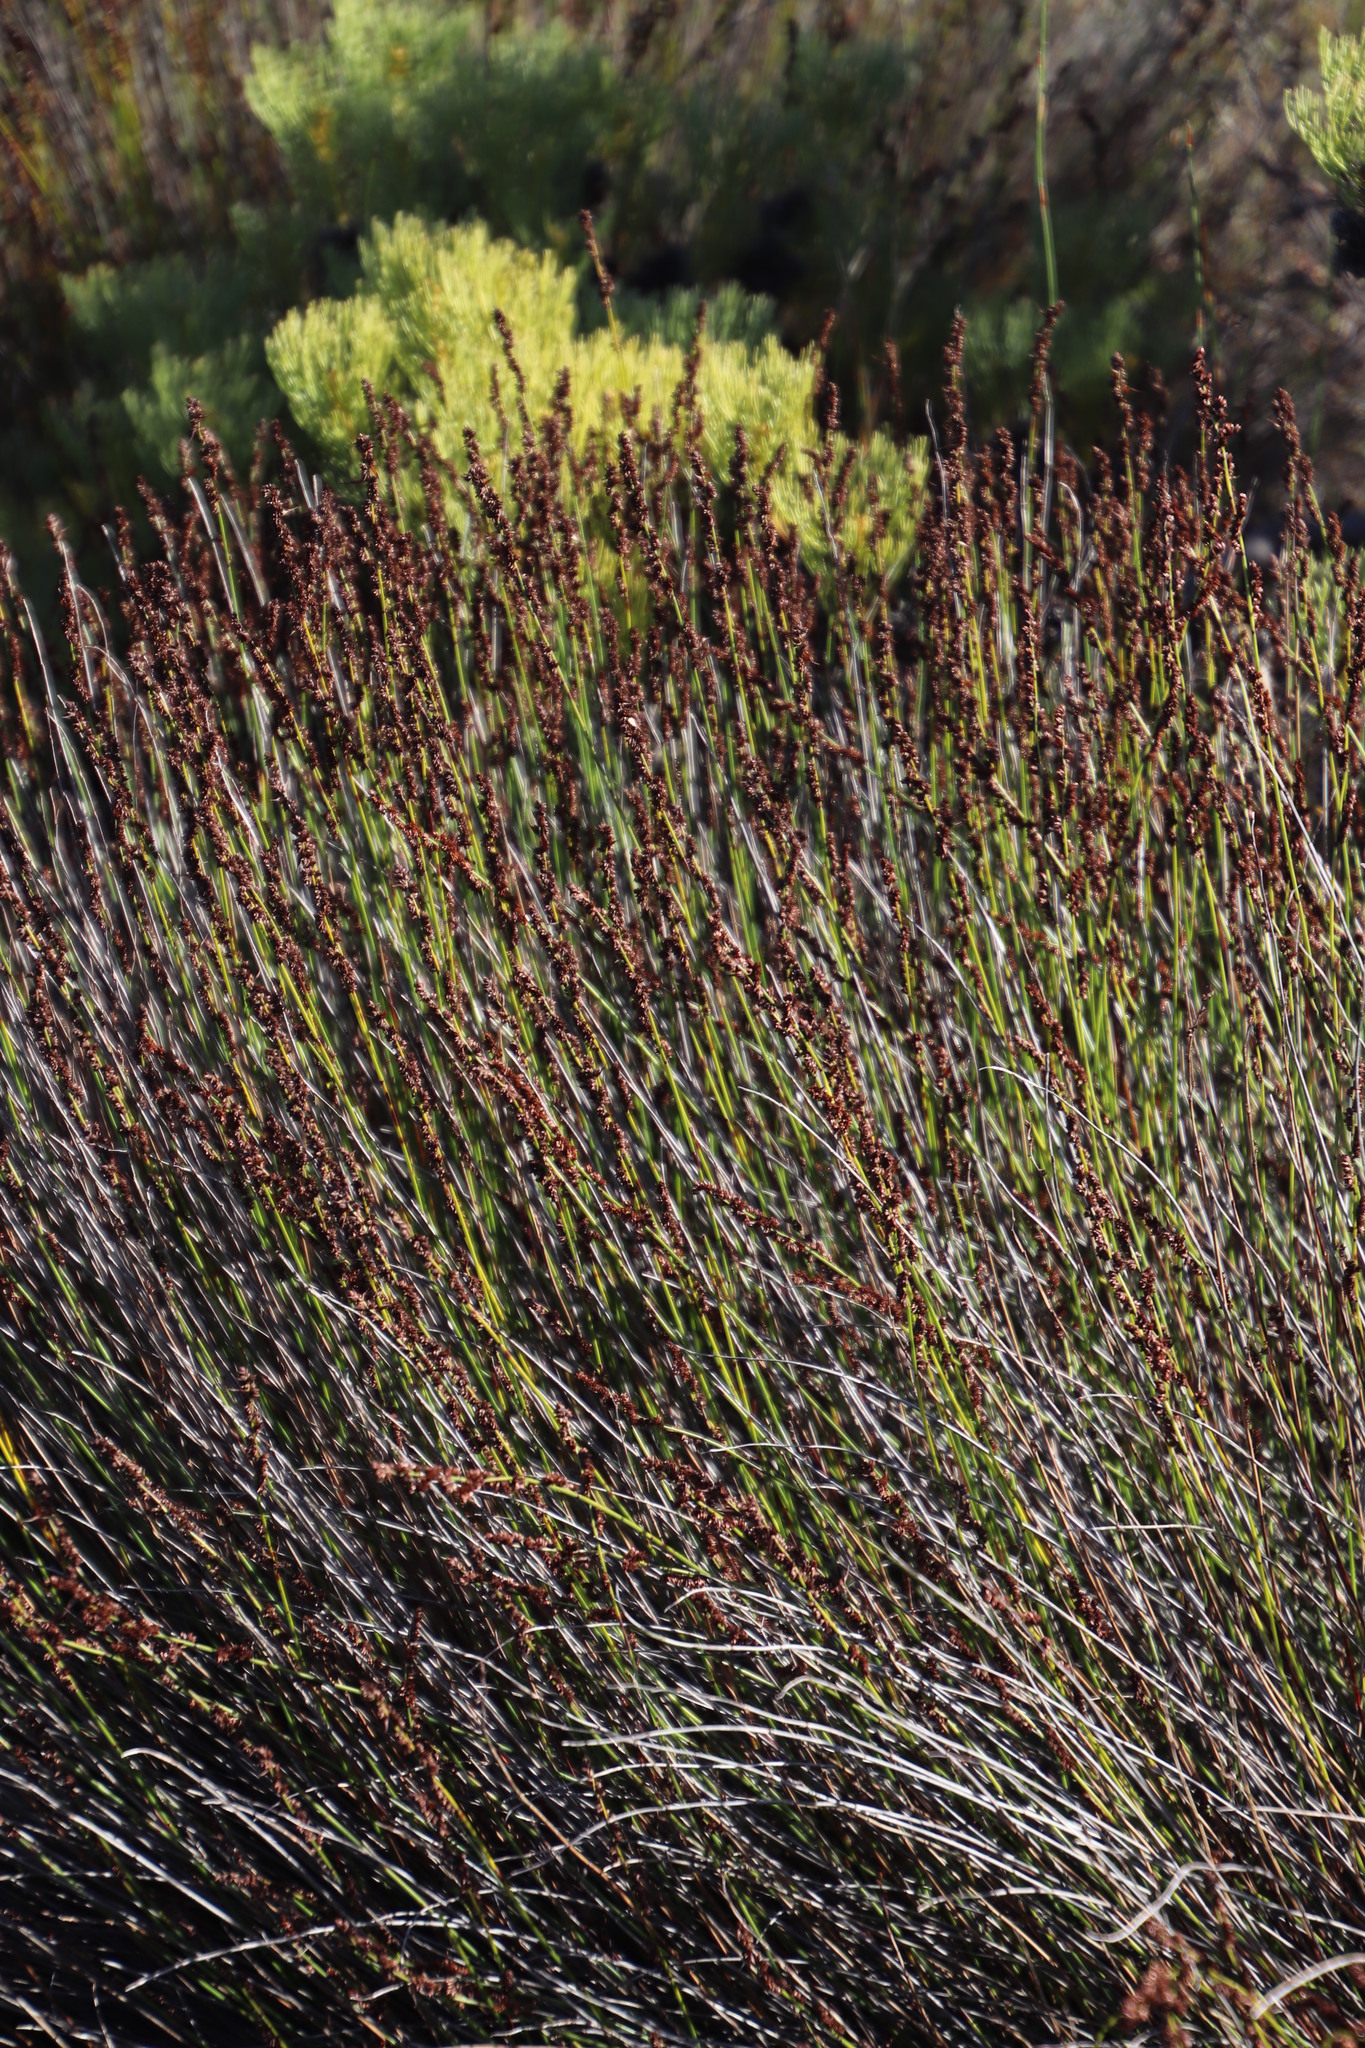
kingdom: Plantae
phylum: Tracheophyta
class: Liliopsida
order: Poales
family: Restionaceae
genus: Elegia
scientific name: Elegia tectorum
